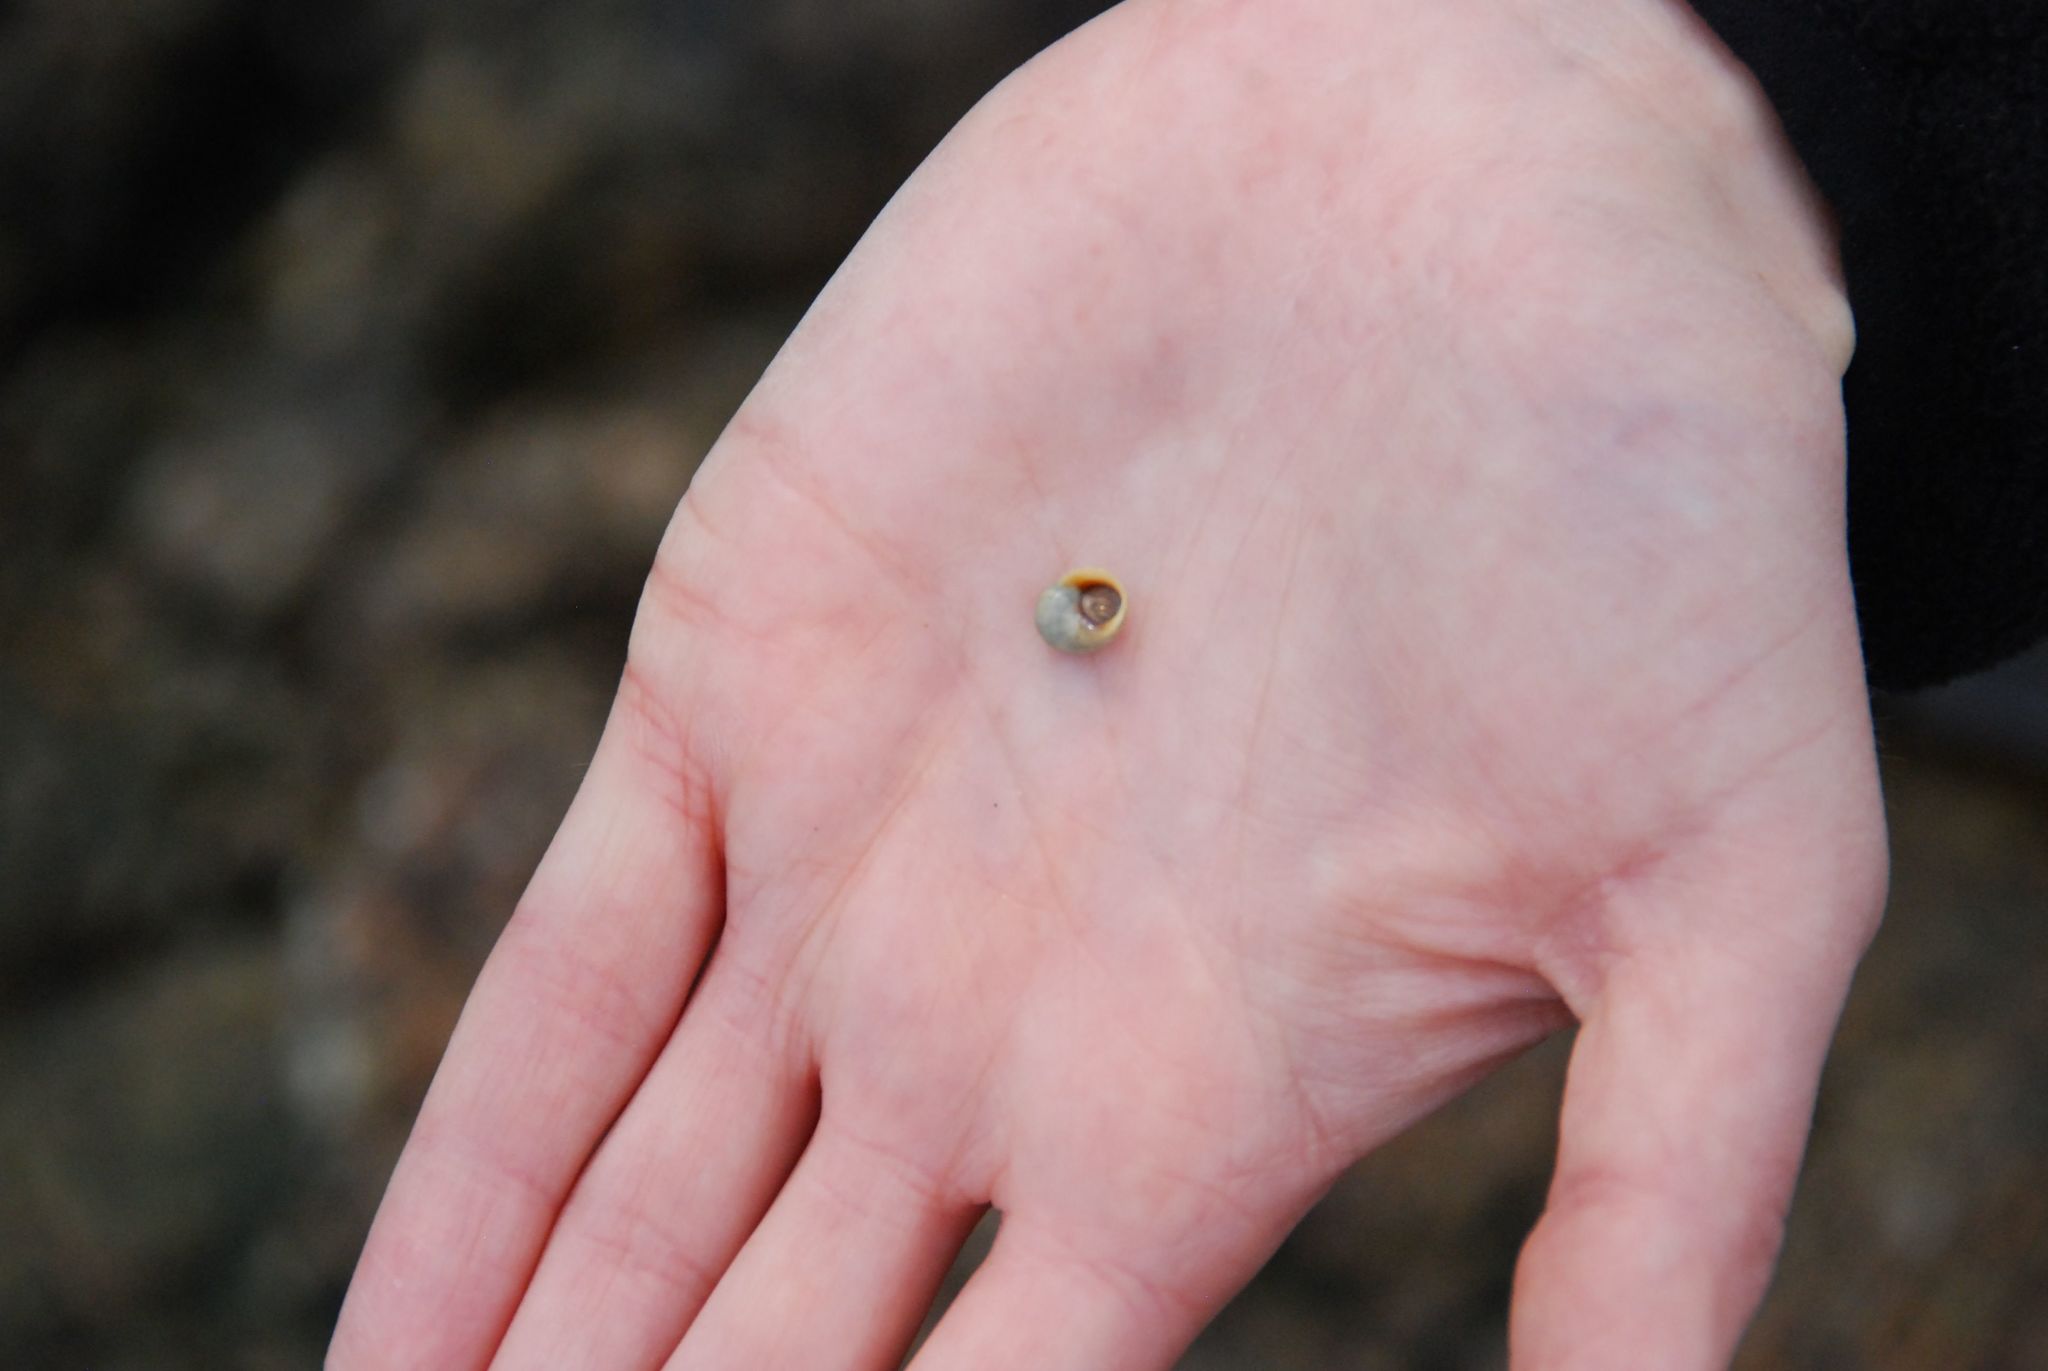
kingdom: Animalia
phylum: Mollusca
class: Gastropoda
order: Littorinimorpha
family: Littorinidae
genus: Littorina
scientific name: Littorina obtusata
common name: Flat periwinkle
